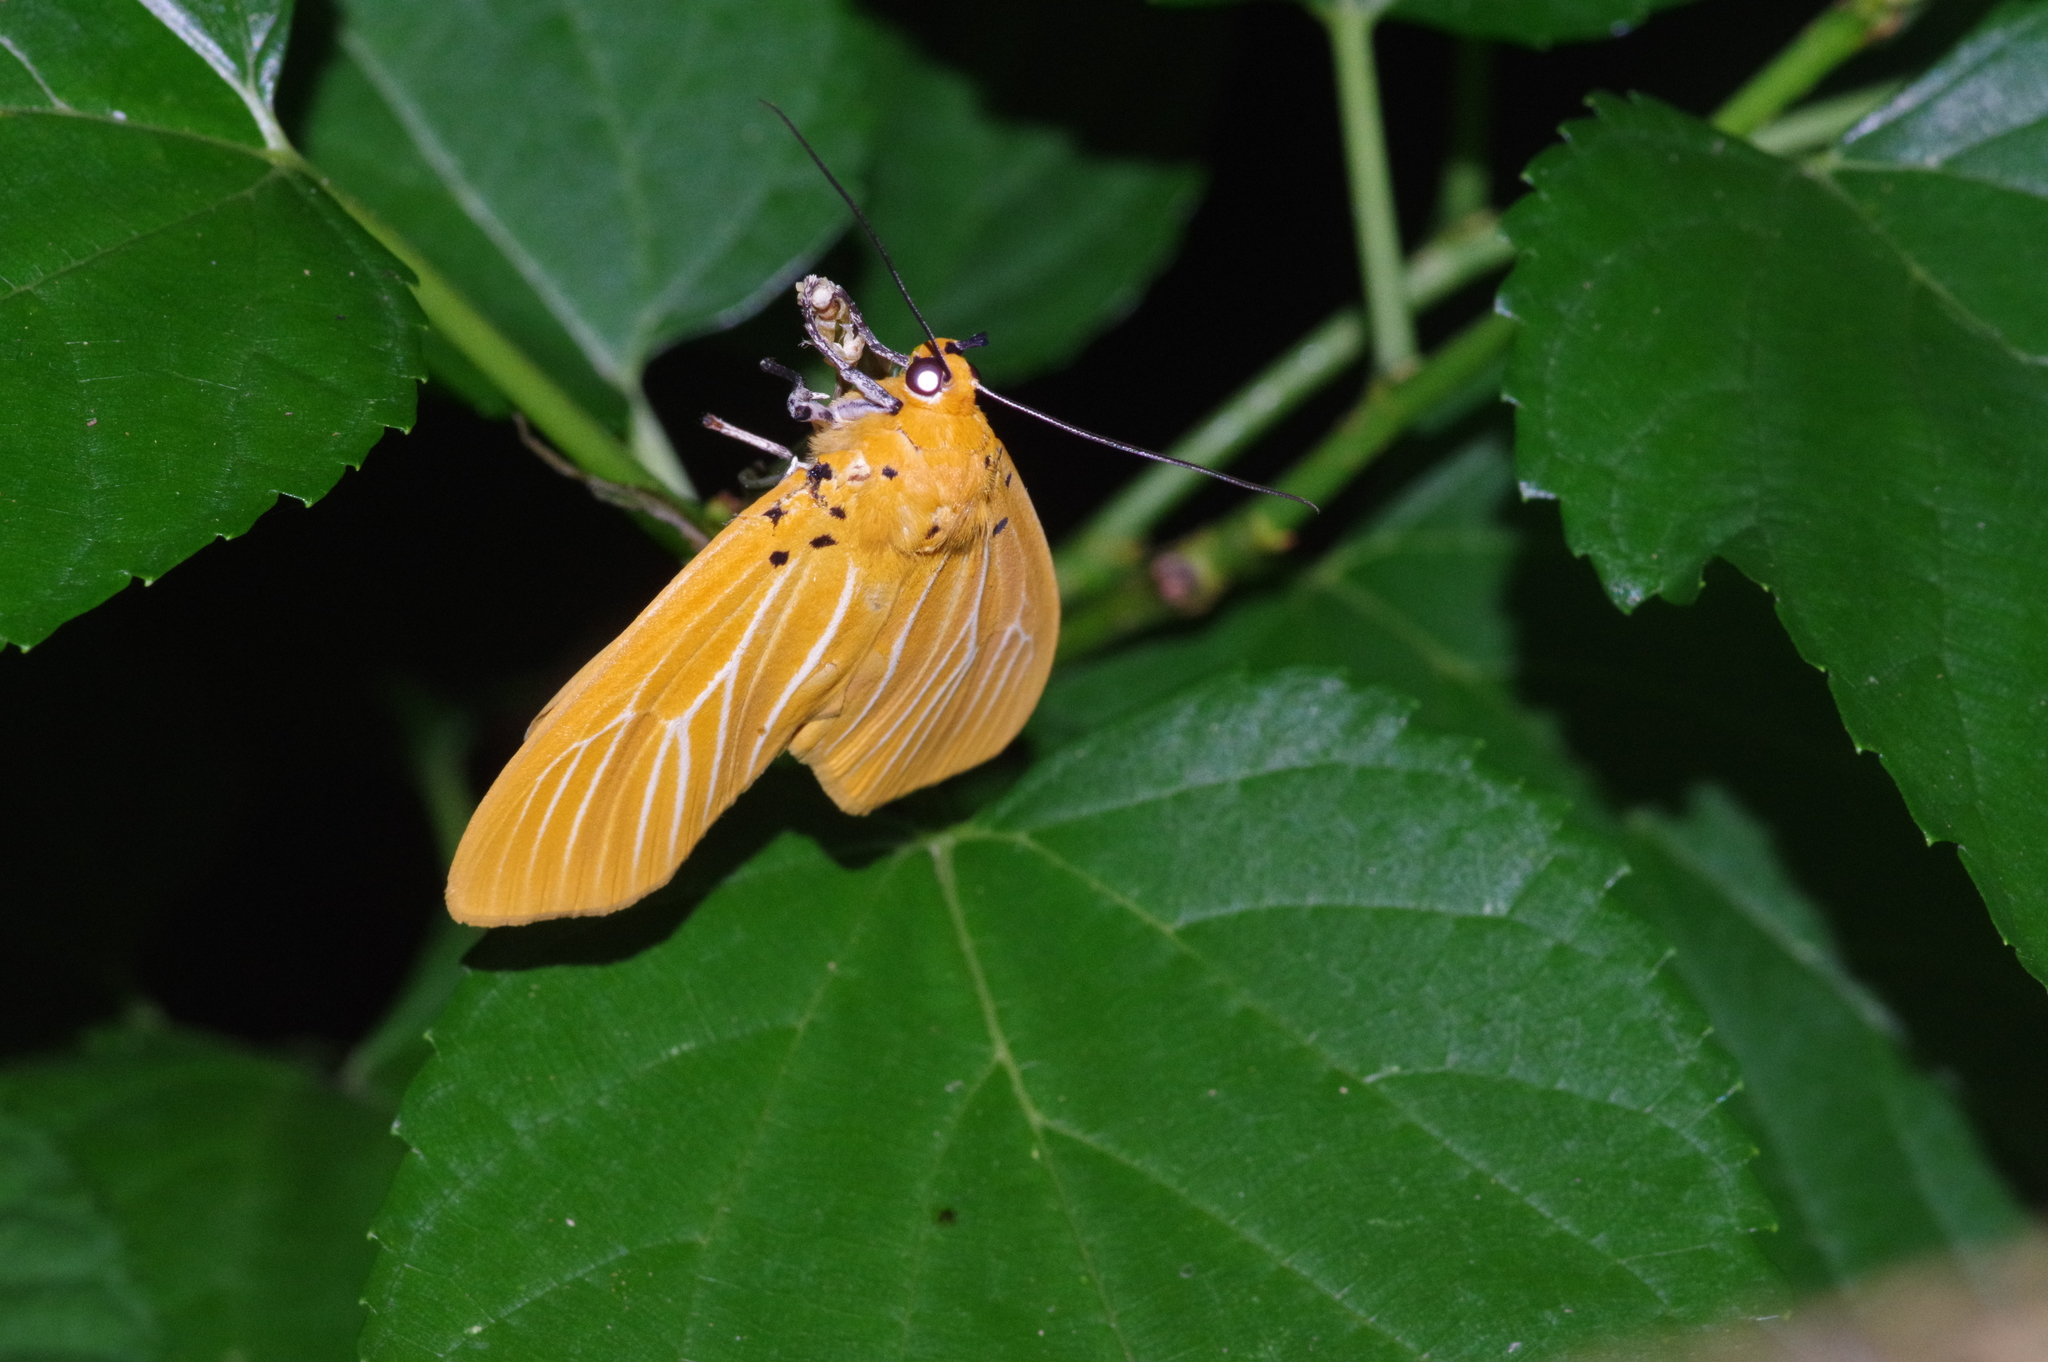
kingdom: Animalia
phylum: Arthropoda
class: Insecta
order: Lepidoptera
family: Erebidae
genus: Asota
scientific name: Asota egens
